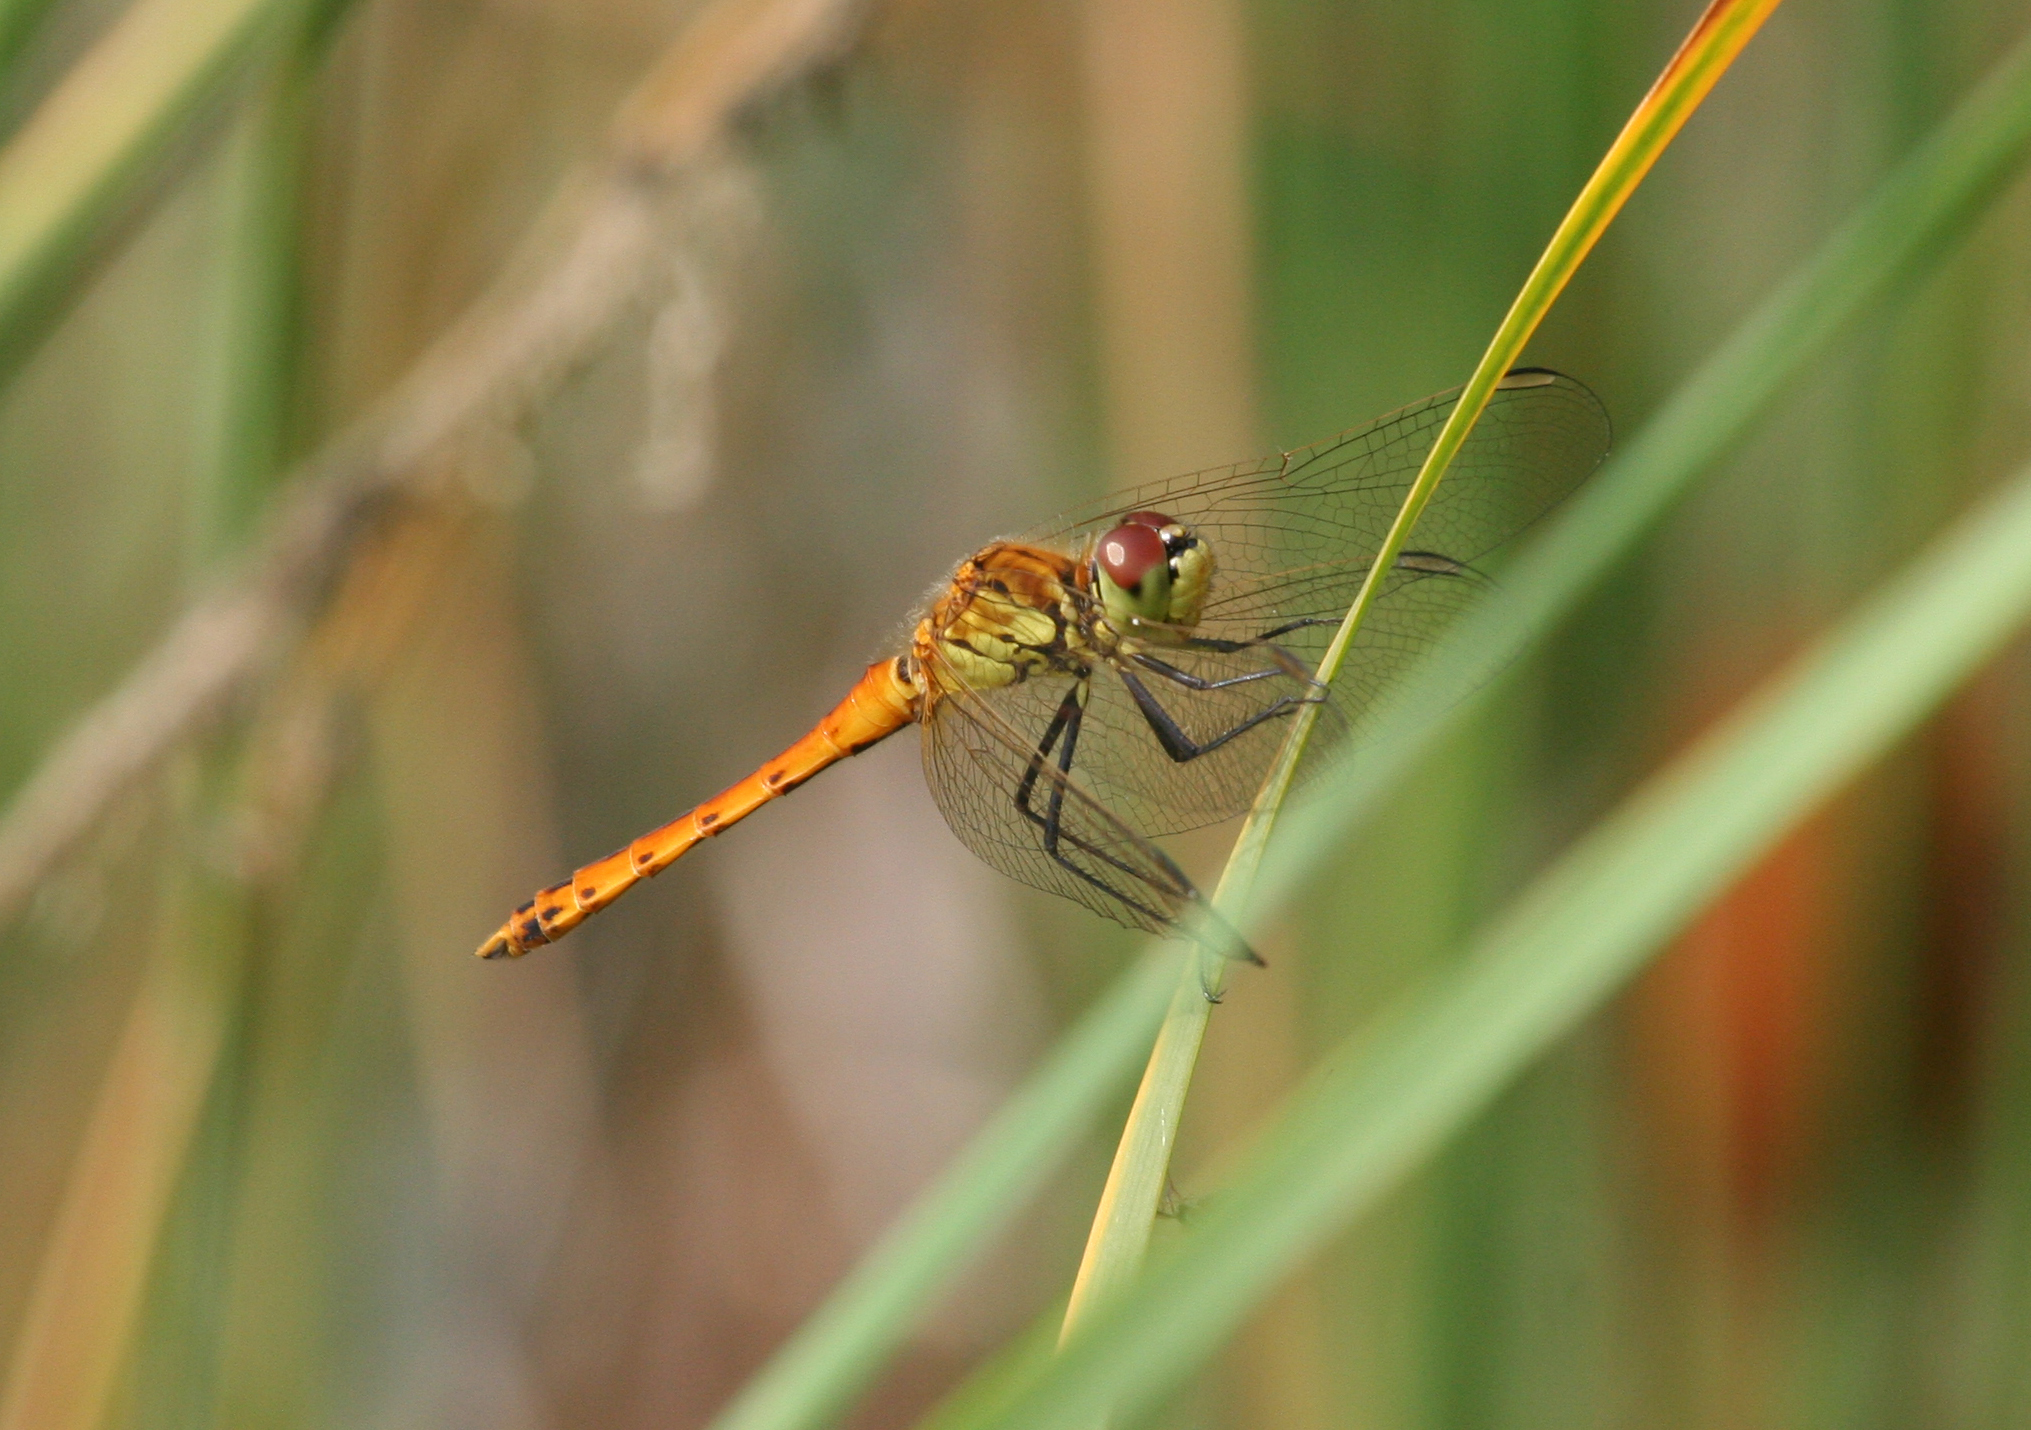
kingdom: Animalia
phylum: Arthropoda
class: Insecta
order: Odonata
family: Libellulidae
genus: Sympetrum
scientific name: Sympetrum depressiusculum
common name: Spotted darter
